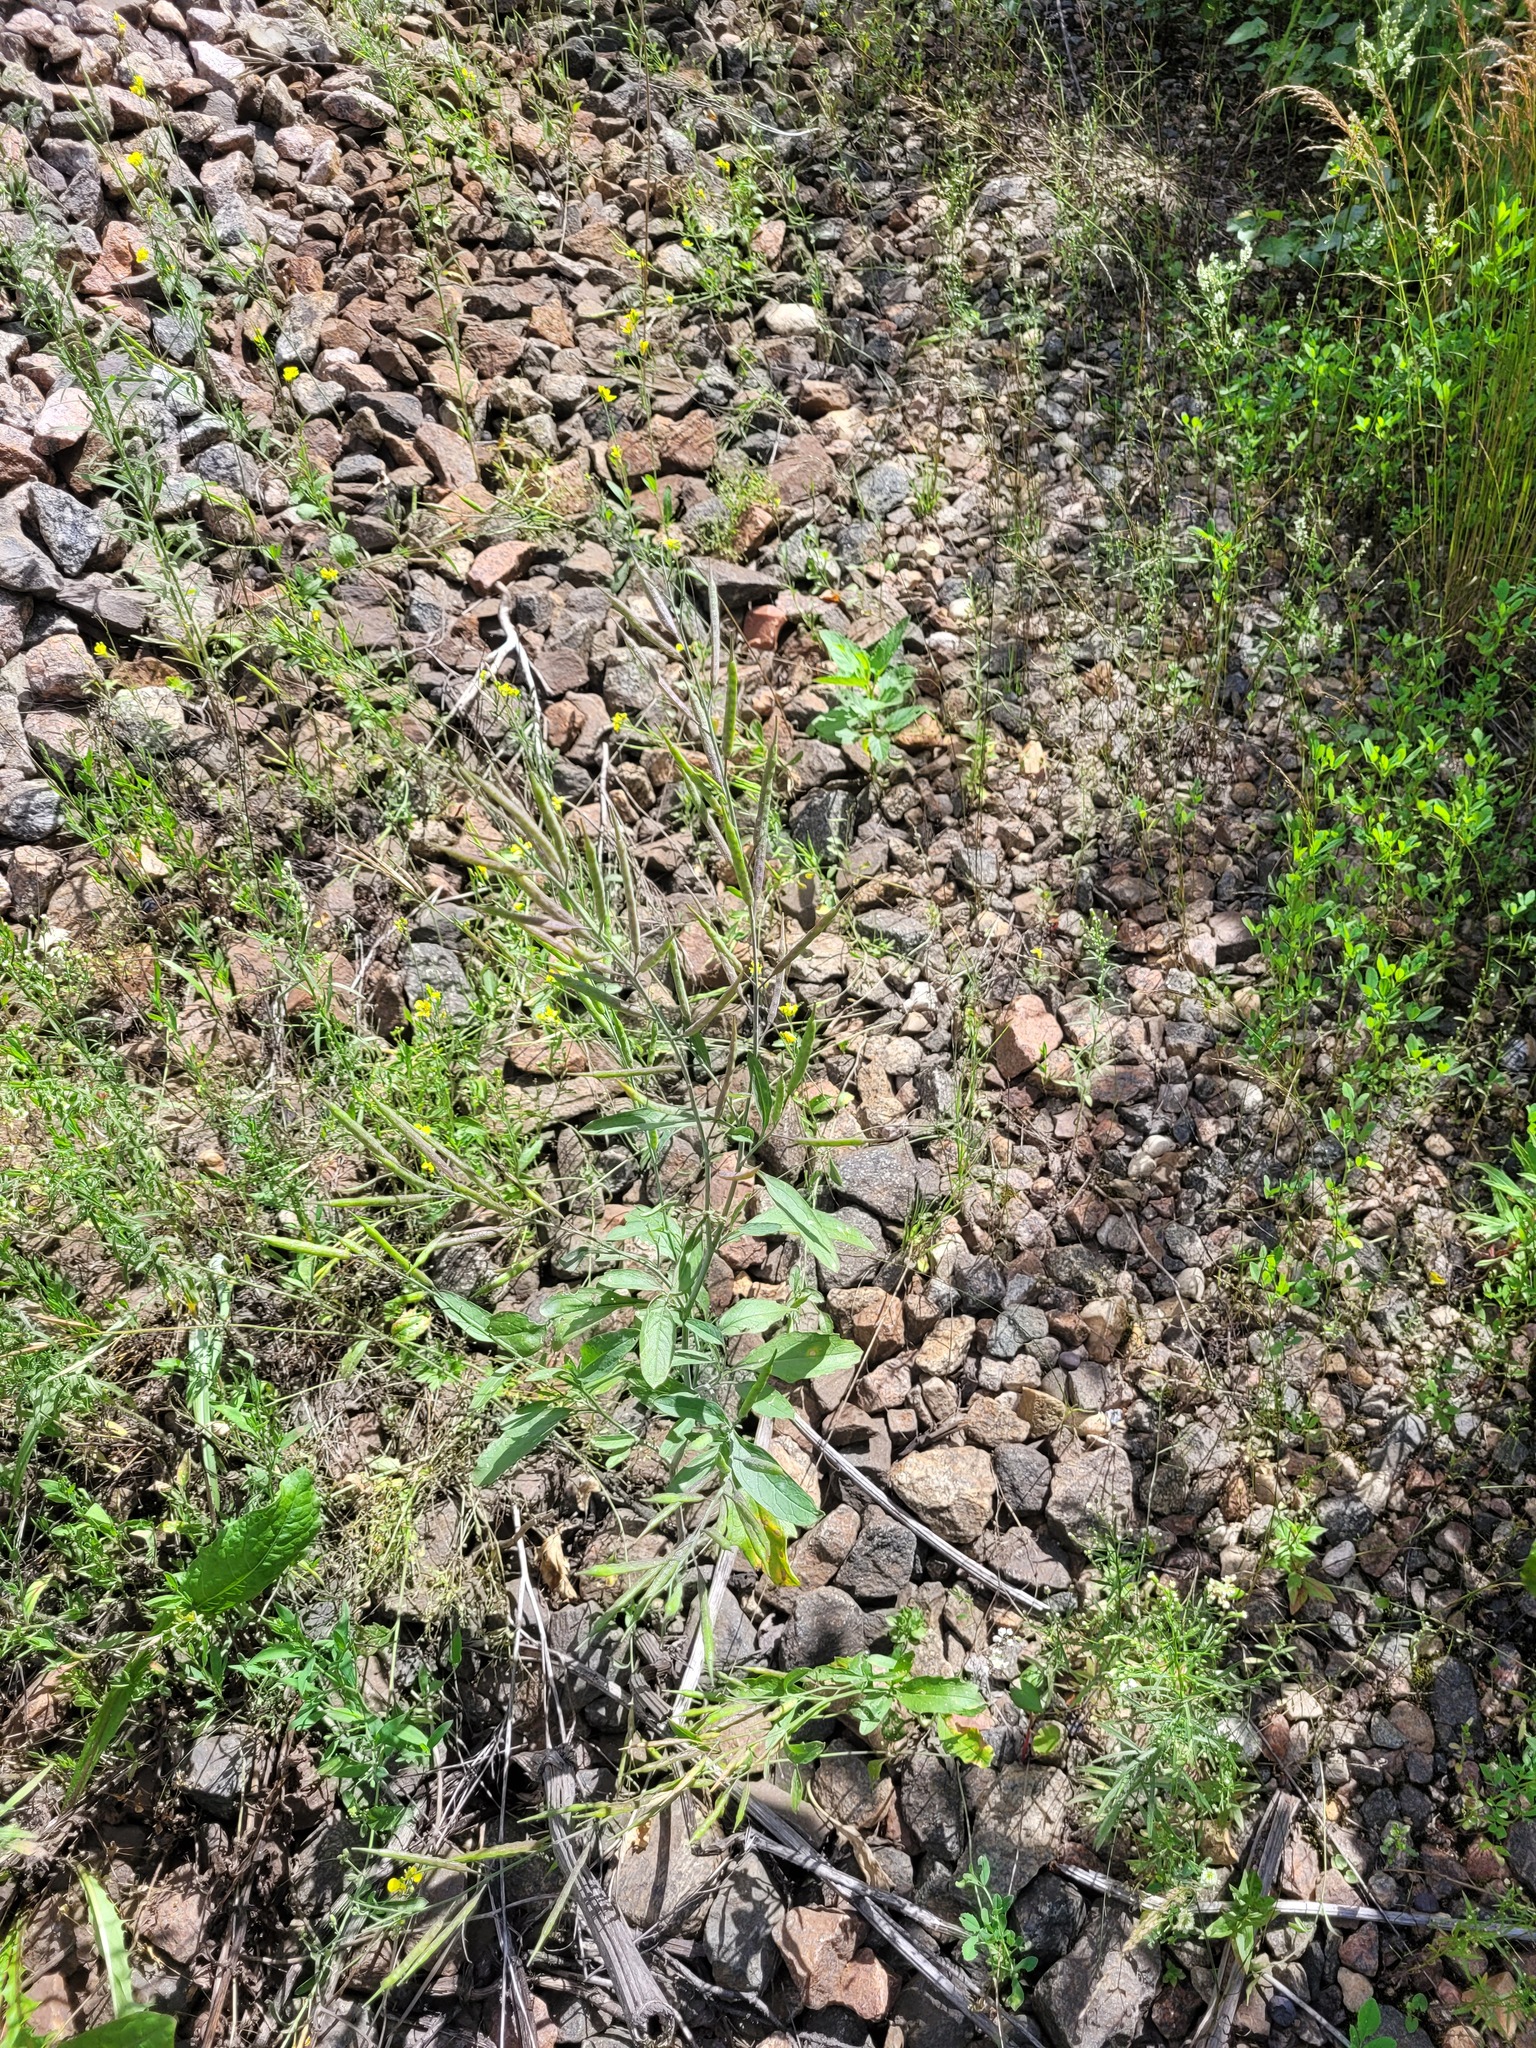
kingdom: Plantae
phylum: Tracheophyta
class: Magnoliopsida
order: Brassicales
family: Brassicaceae
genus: Brassica
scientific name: Brassica juncea
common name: Brown mustard
